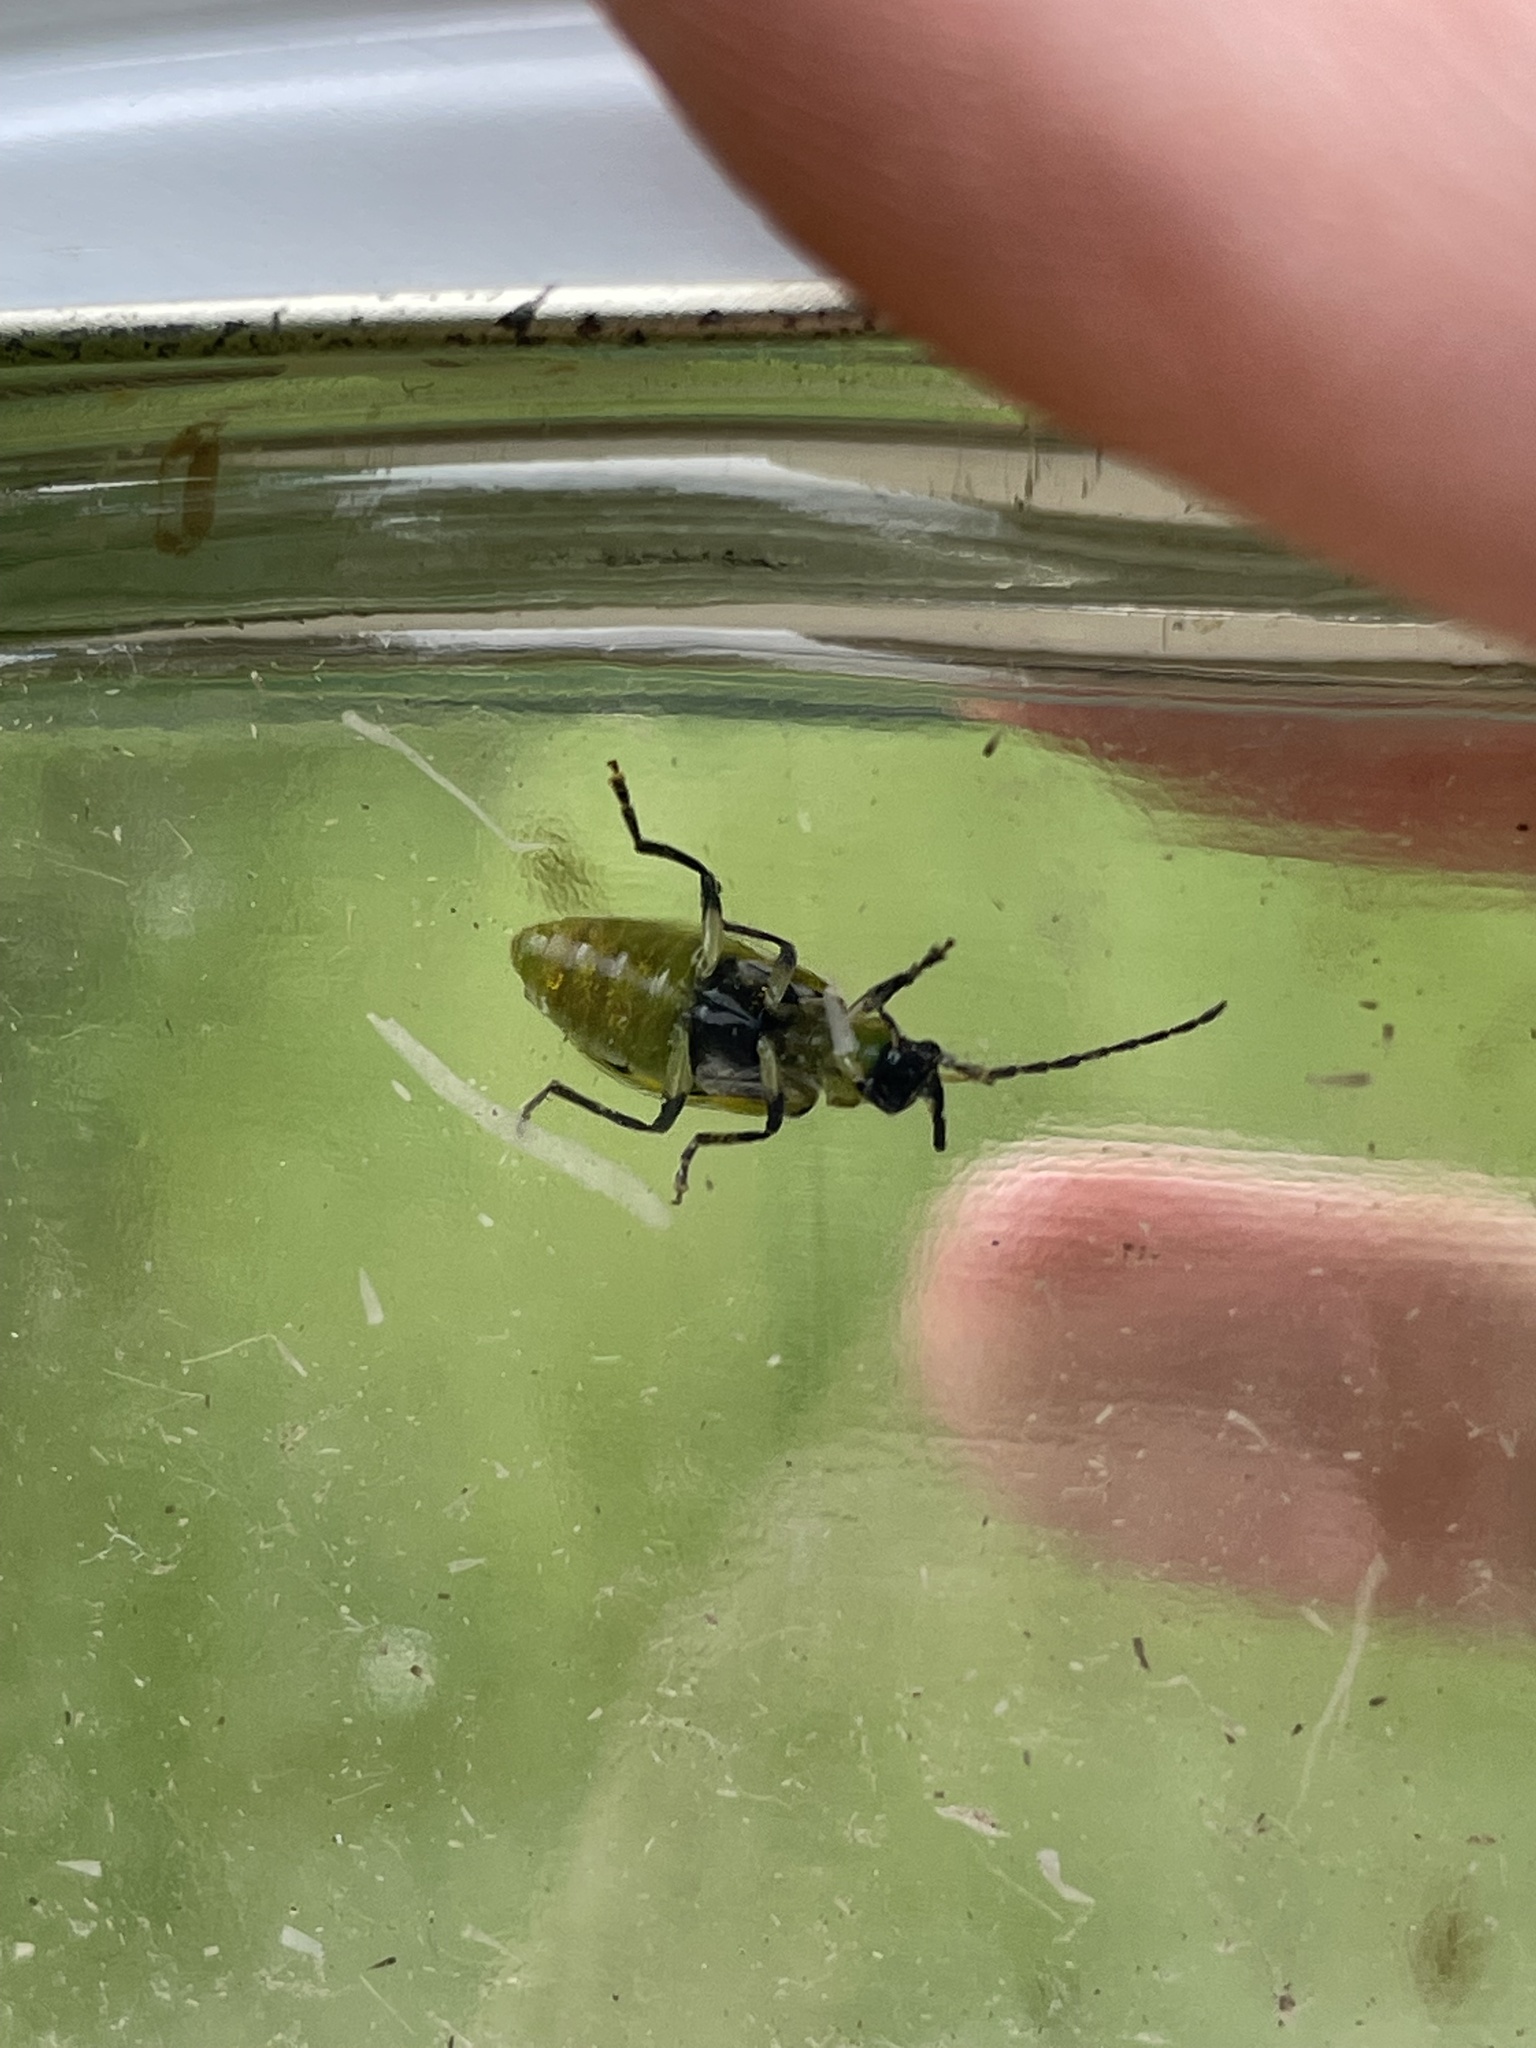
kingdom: Animalia
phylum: Arthropoda
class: Insecta
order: Coleoptera
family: Chrysomelidae
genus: Diabrotica
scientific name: Diabrotica undecimpunctata
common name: Spotted cucumber beetle
